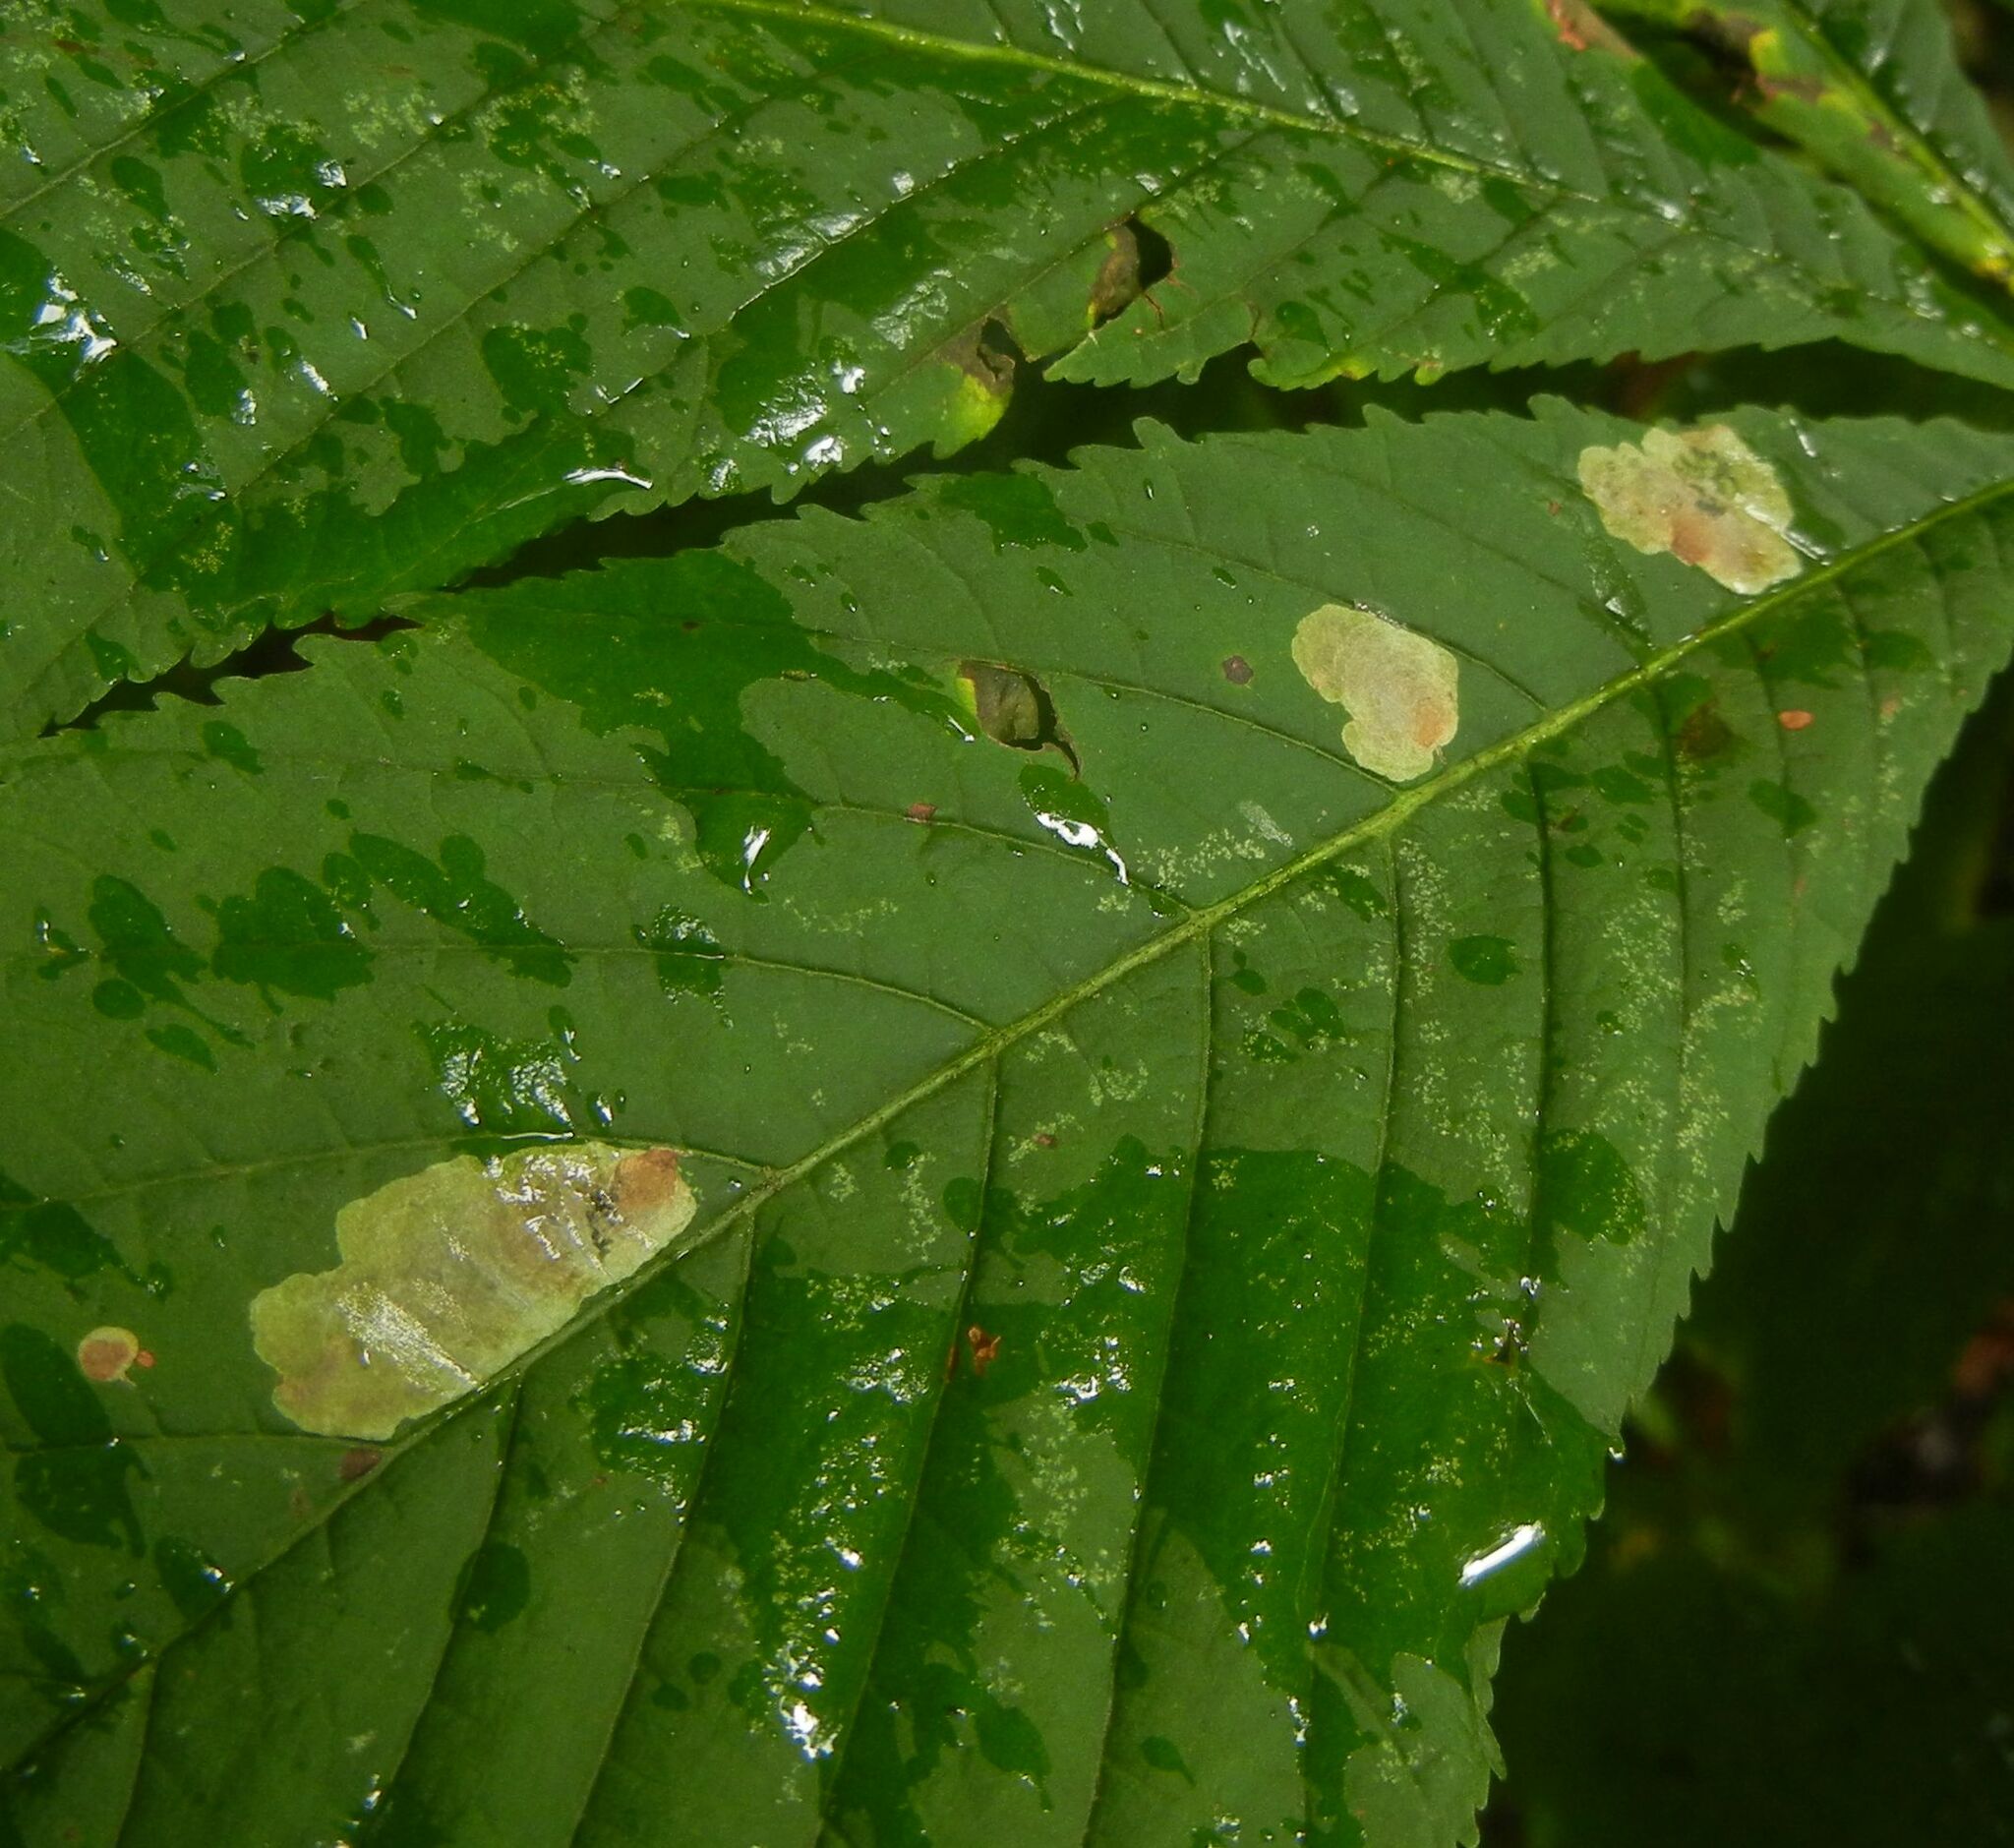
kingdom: Animalia
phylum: Arthropoda
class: Insecta
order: Lepidoptera
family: Gracillariidae
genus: Cameraria
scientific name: Cameraria ohridella
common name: Horse-chestnut leaf-miner
